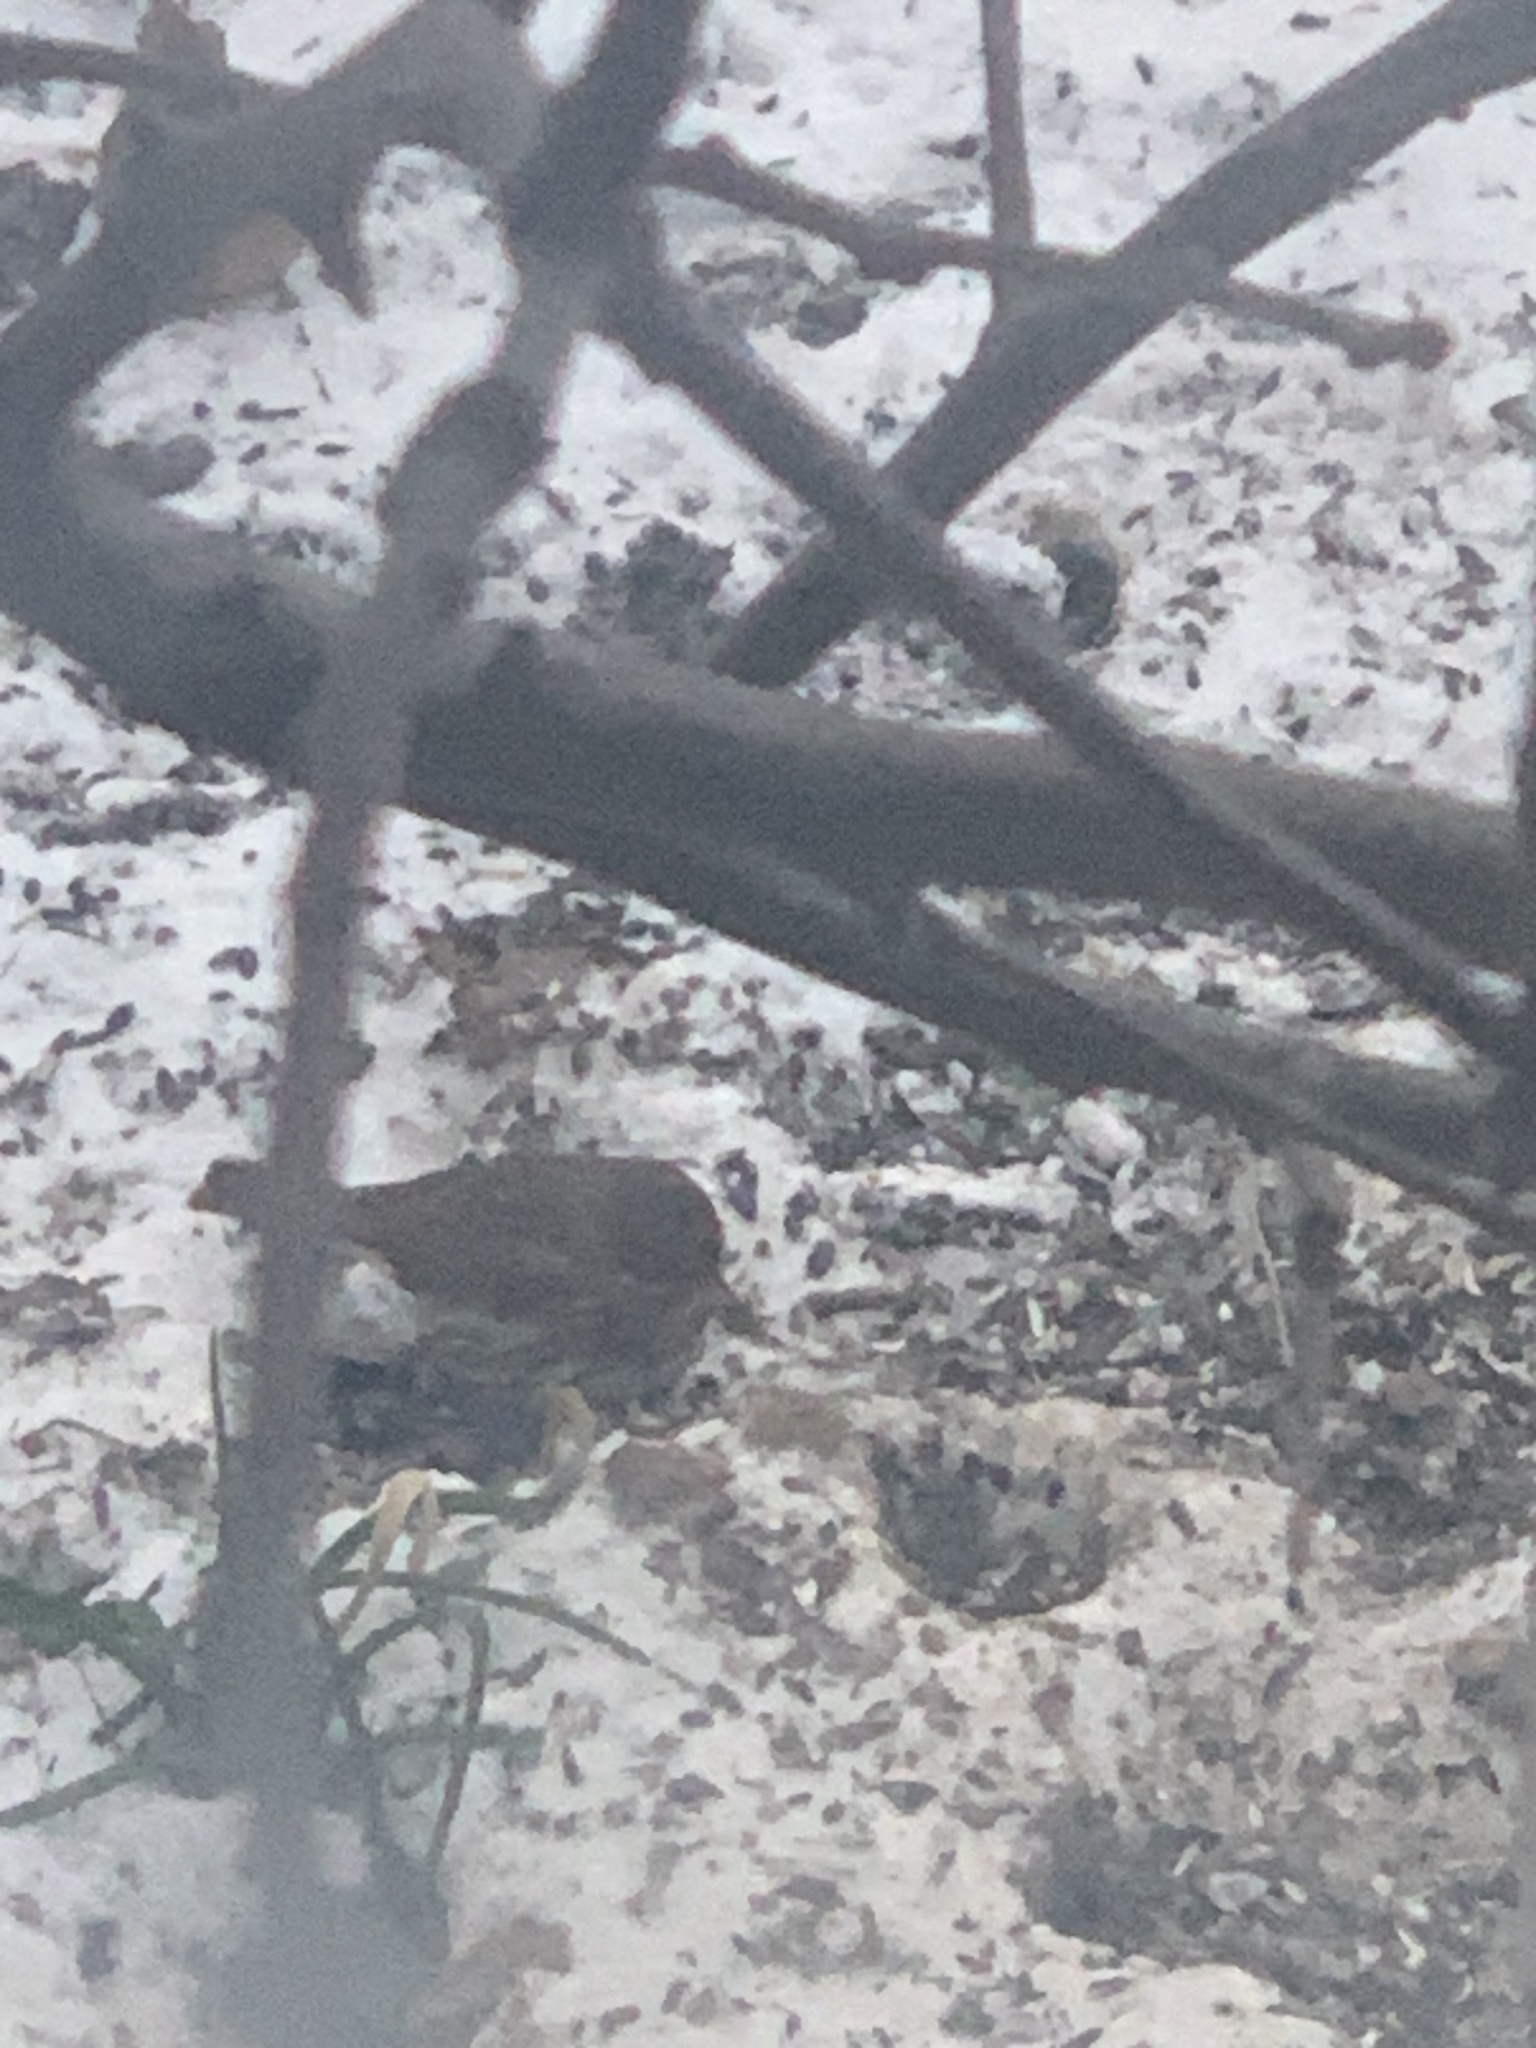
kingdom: Animalia
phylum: Chordata
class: Aves
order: Passeriformes
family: Passerellidae
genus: Passerella
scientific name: Passerella iliaca
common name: Fox sparrow
